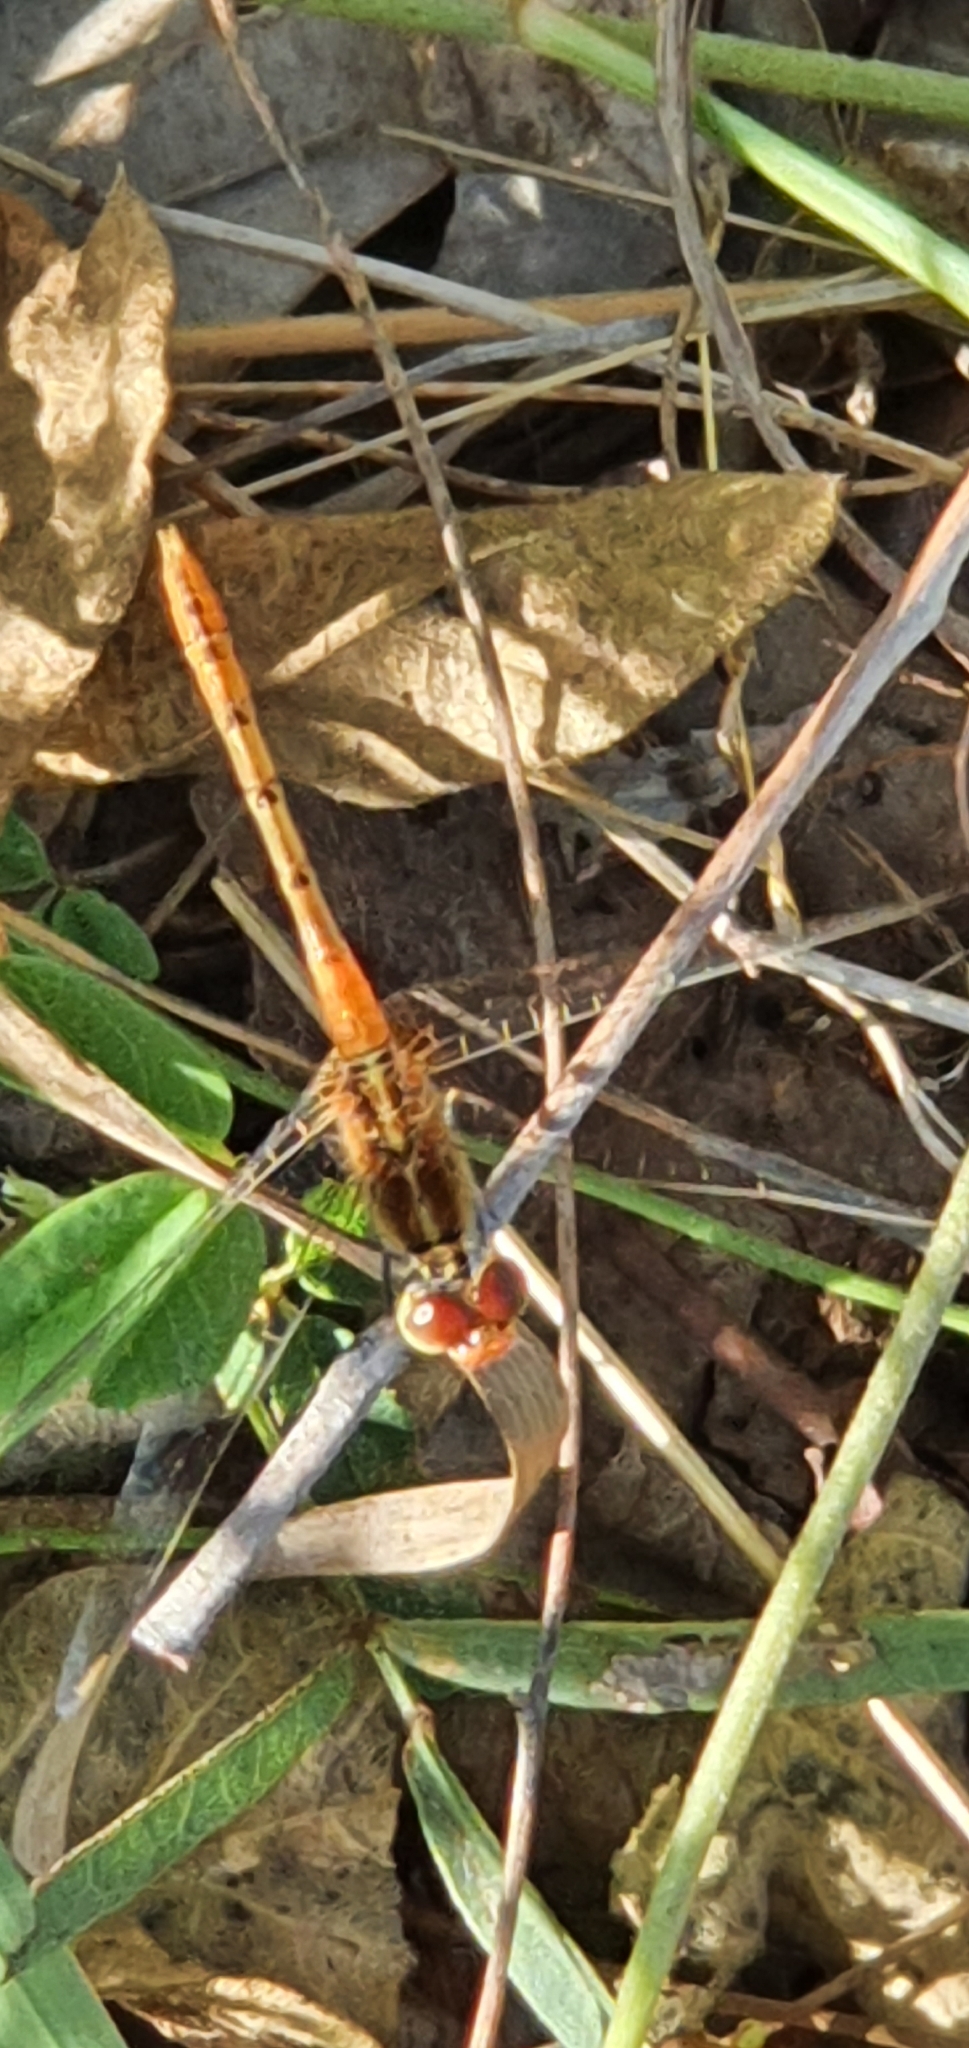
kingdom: Animalia
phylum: Arthropoda
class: Insecta
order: Odonata
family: Libellulidae
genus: Diplacodes
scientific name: Diplacodes bipunctata
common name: Red percher dragonfly
